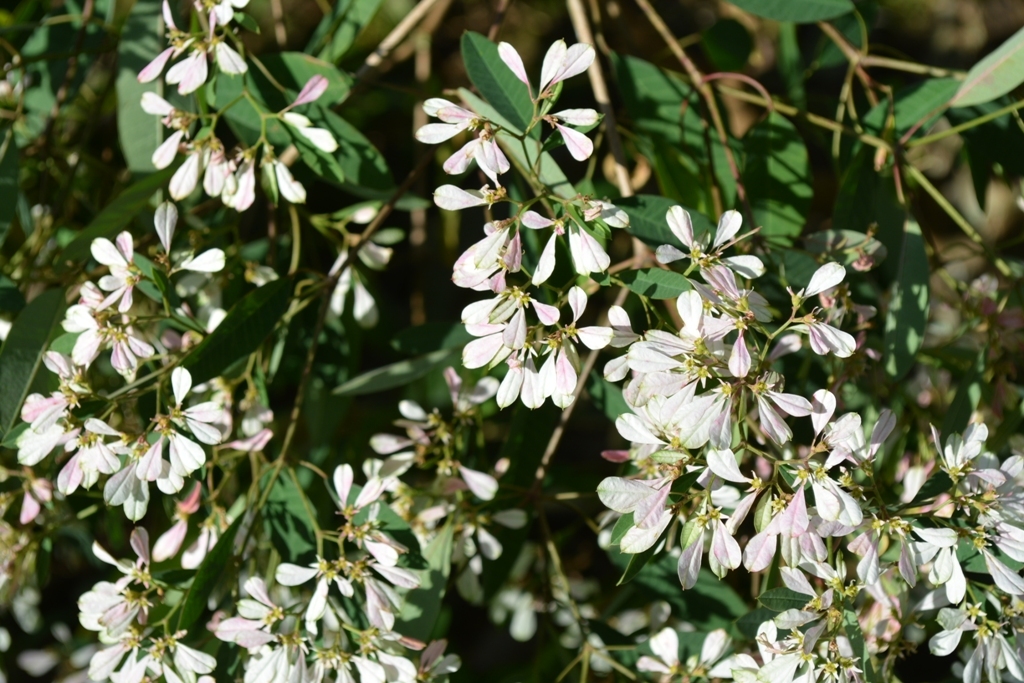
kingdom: Plantae
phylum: Tracheophyta
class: Magnoliopsida
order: Malpighiales
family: Euphorbiaceae
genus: Euphorbia
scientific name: Euphorbia leucocephala
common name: Pascuita
